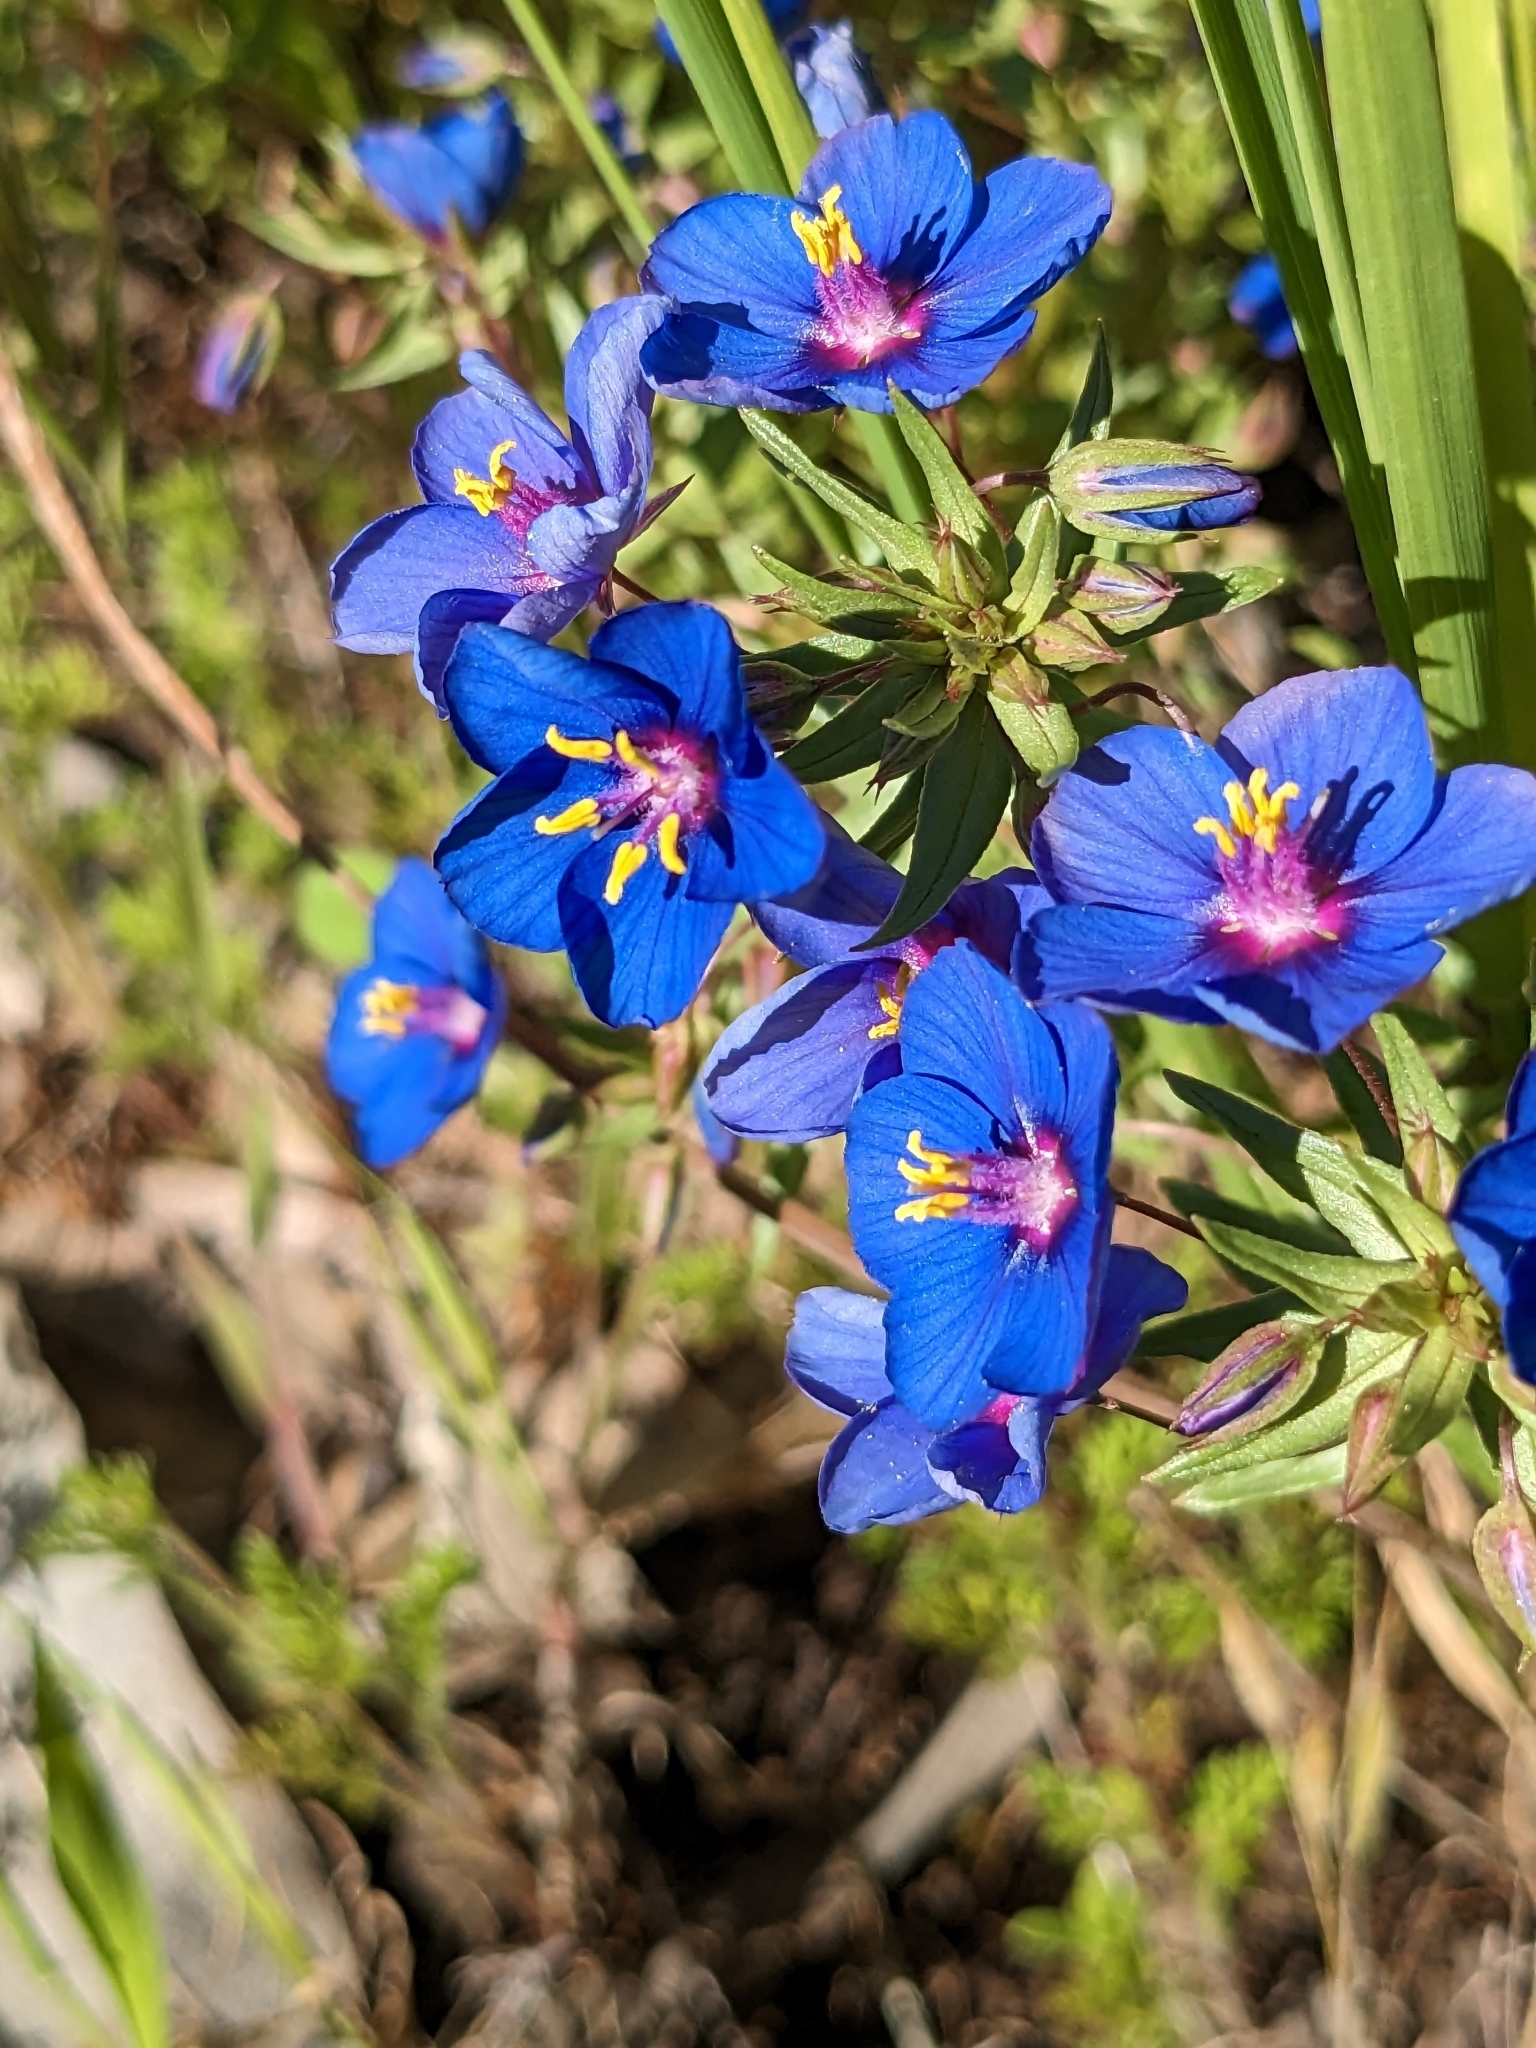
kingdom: Plantae
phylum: Tracheophyta
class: Magnoliopsida
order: Ericales
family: Primulaceae
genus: Lysimachia
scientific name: Lysimachia monelli
